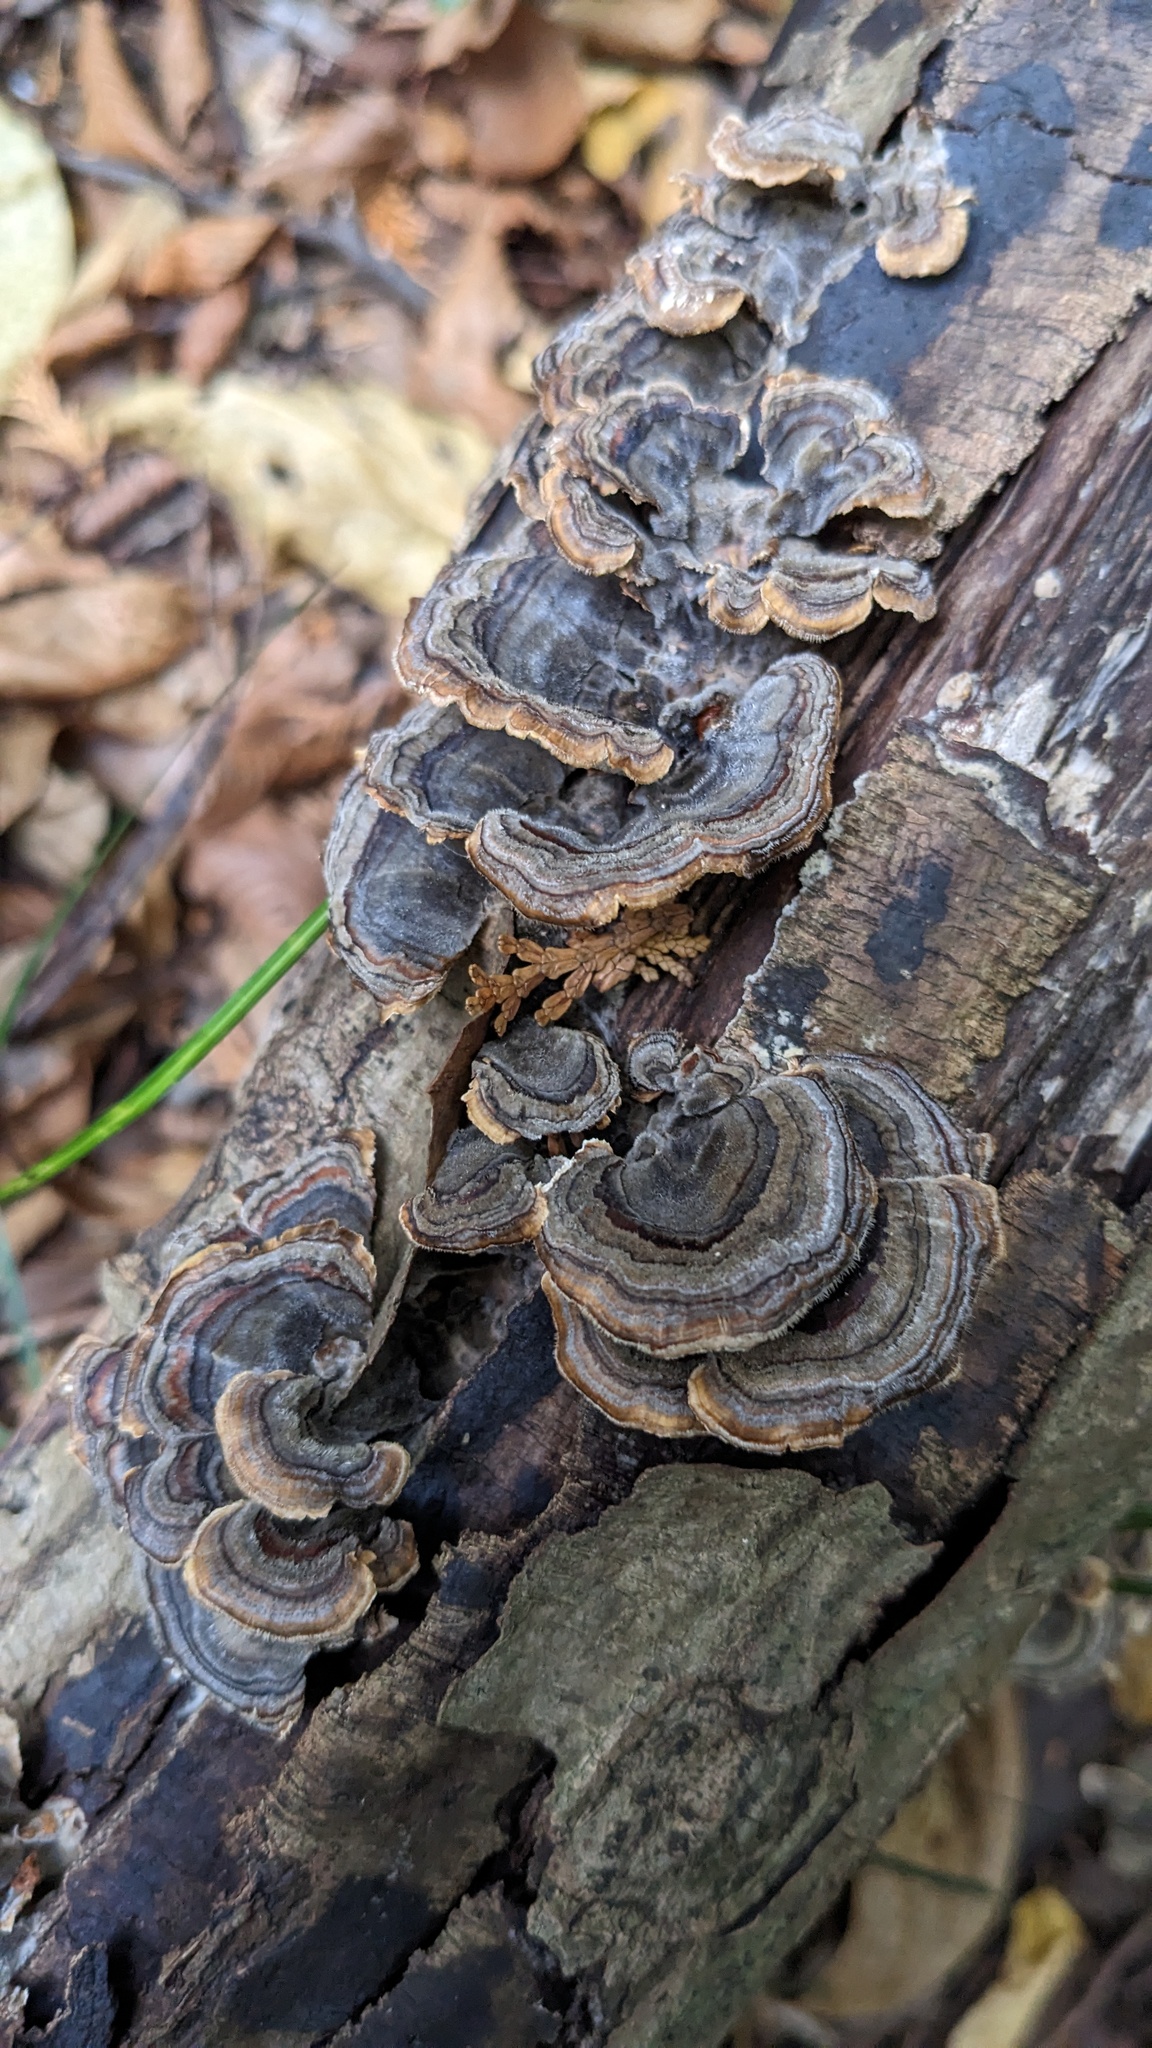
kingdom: Fungi
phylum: Basidiomycota
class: Agaricomycetes
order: Polyporales
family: Polyporaceae
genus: Trametes
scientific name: Trametes versicolor
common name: Turkeytail
